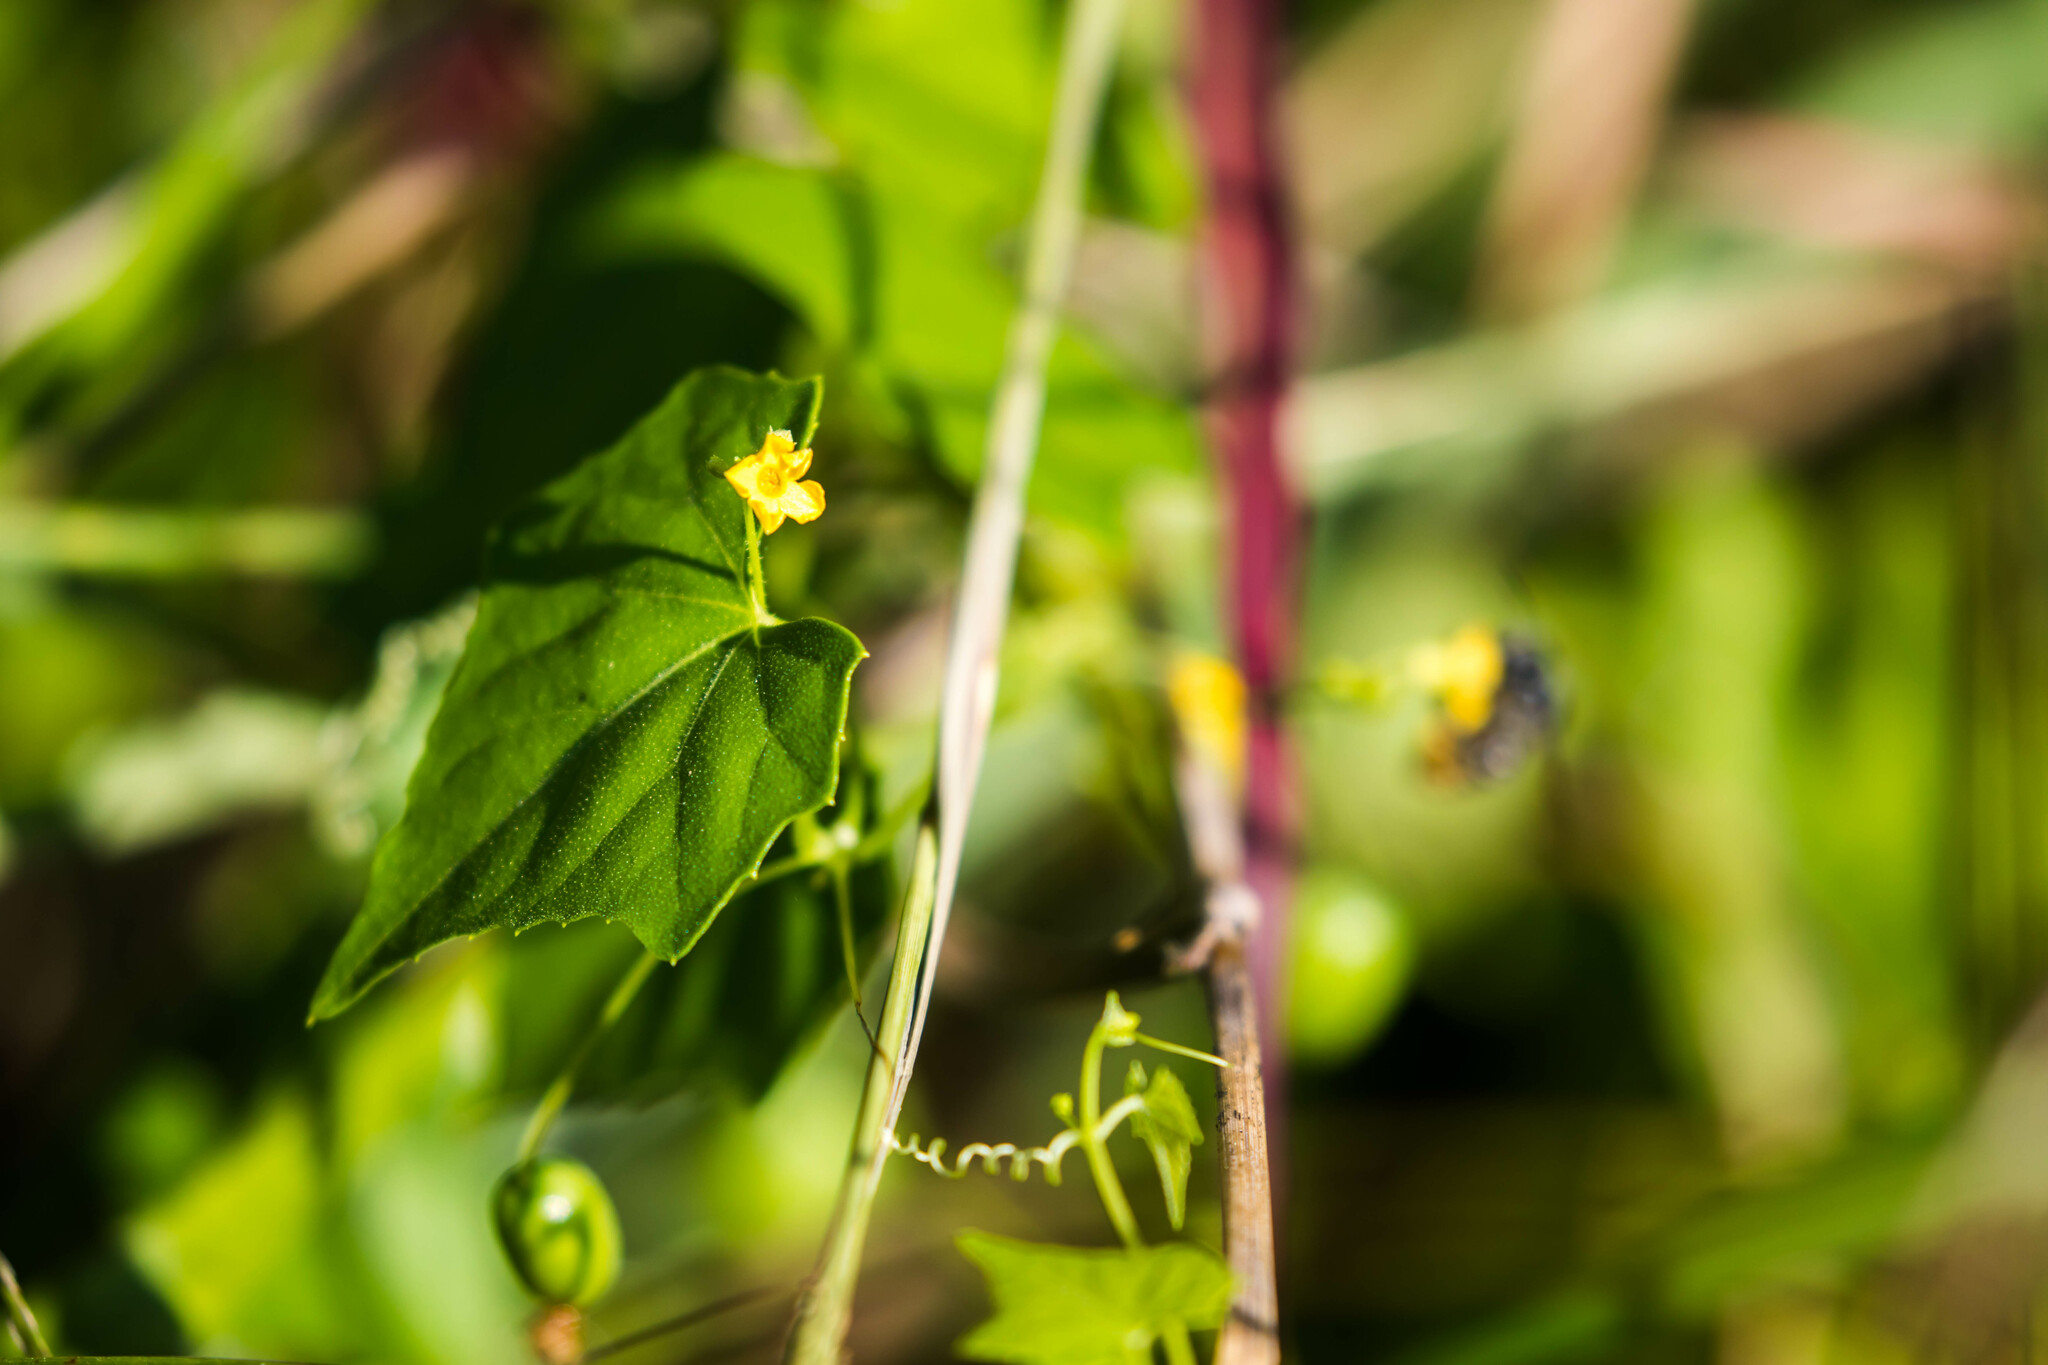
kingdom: Plantae
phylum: Tracheophyta
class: Magnoliopsida
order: Cucurbitales
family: Cucurbitaceae
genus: Melothria
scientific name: Melothria pendula
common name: Creeping-cucumber
